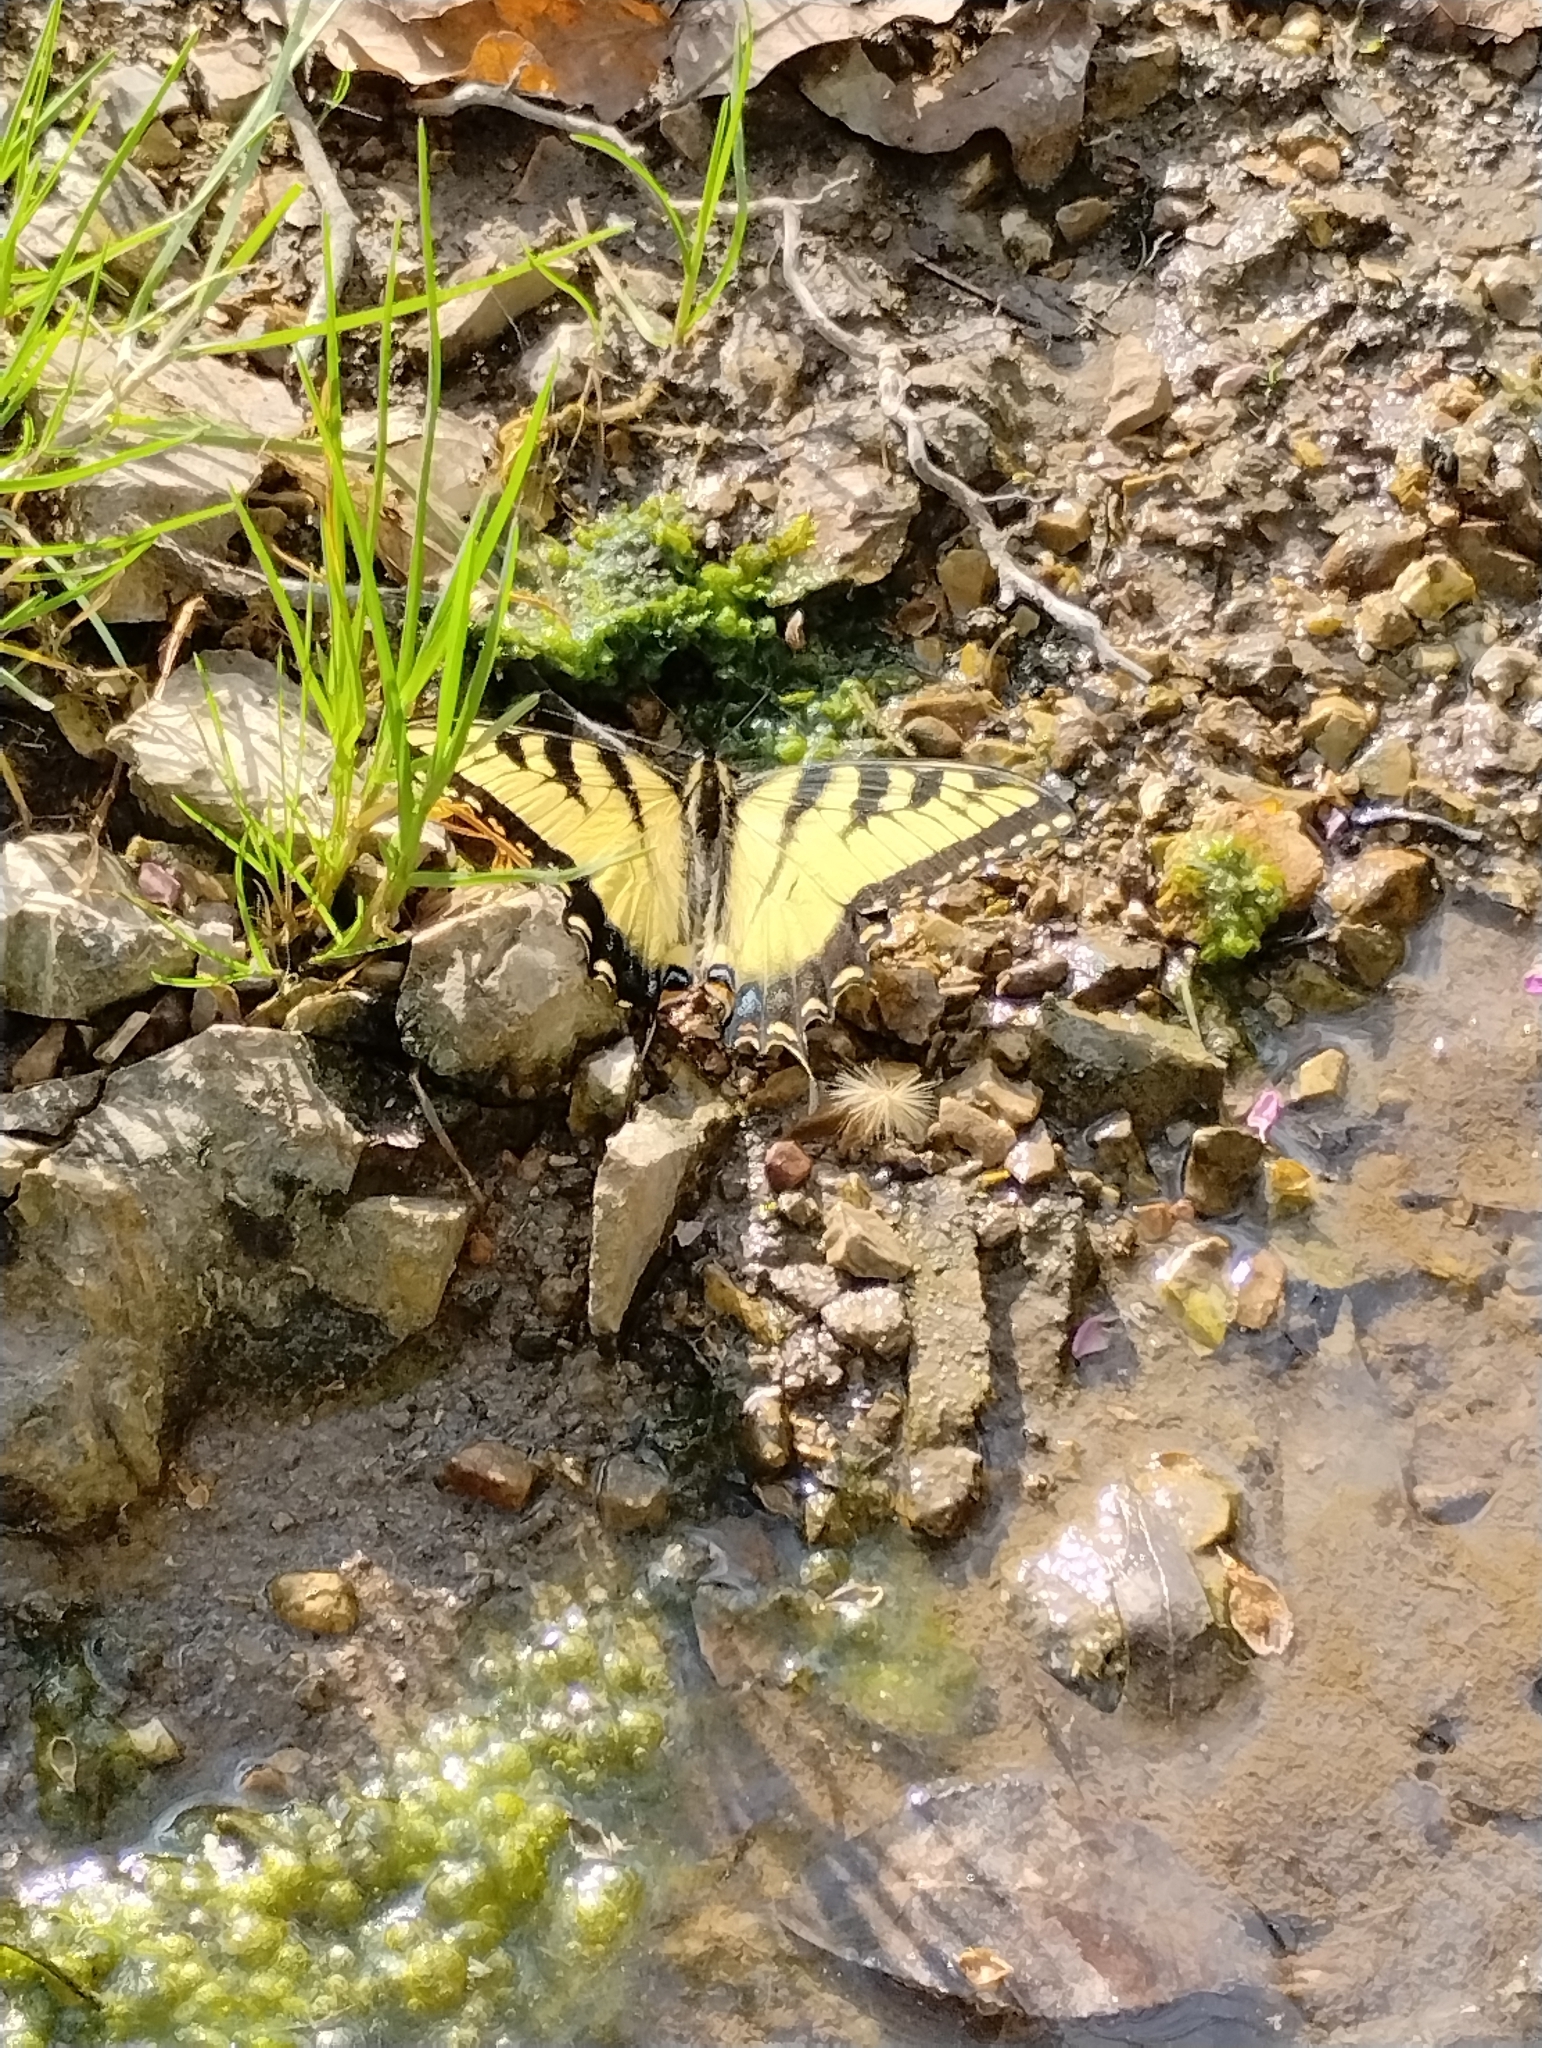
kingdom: Animalia
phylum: Arthropoda
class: Insecta
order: Lepidoptera
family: Papilionidae
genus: Papilio
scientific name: Papilio glaucus
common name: Tiger swallowtail
